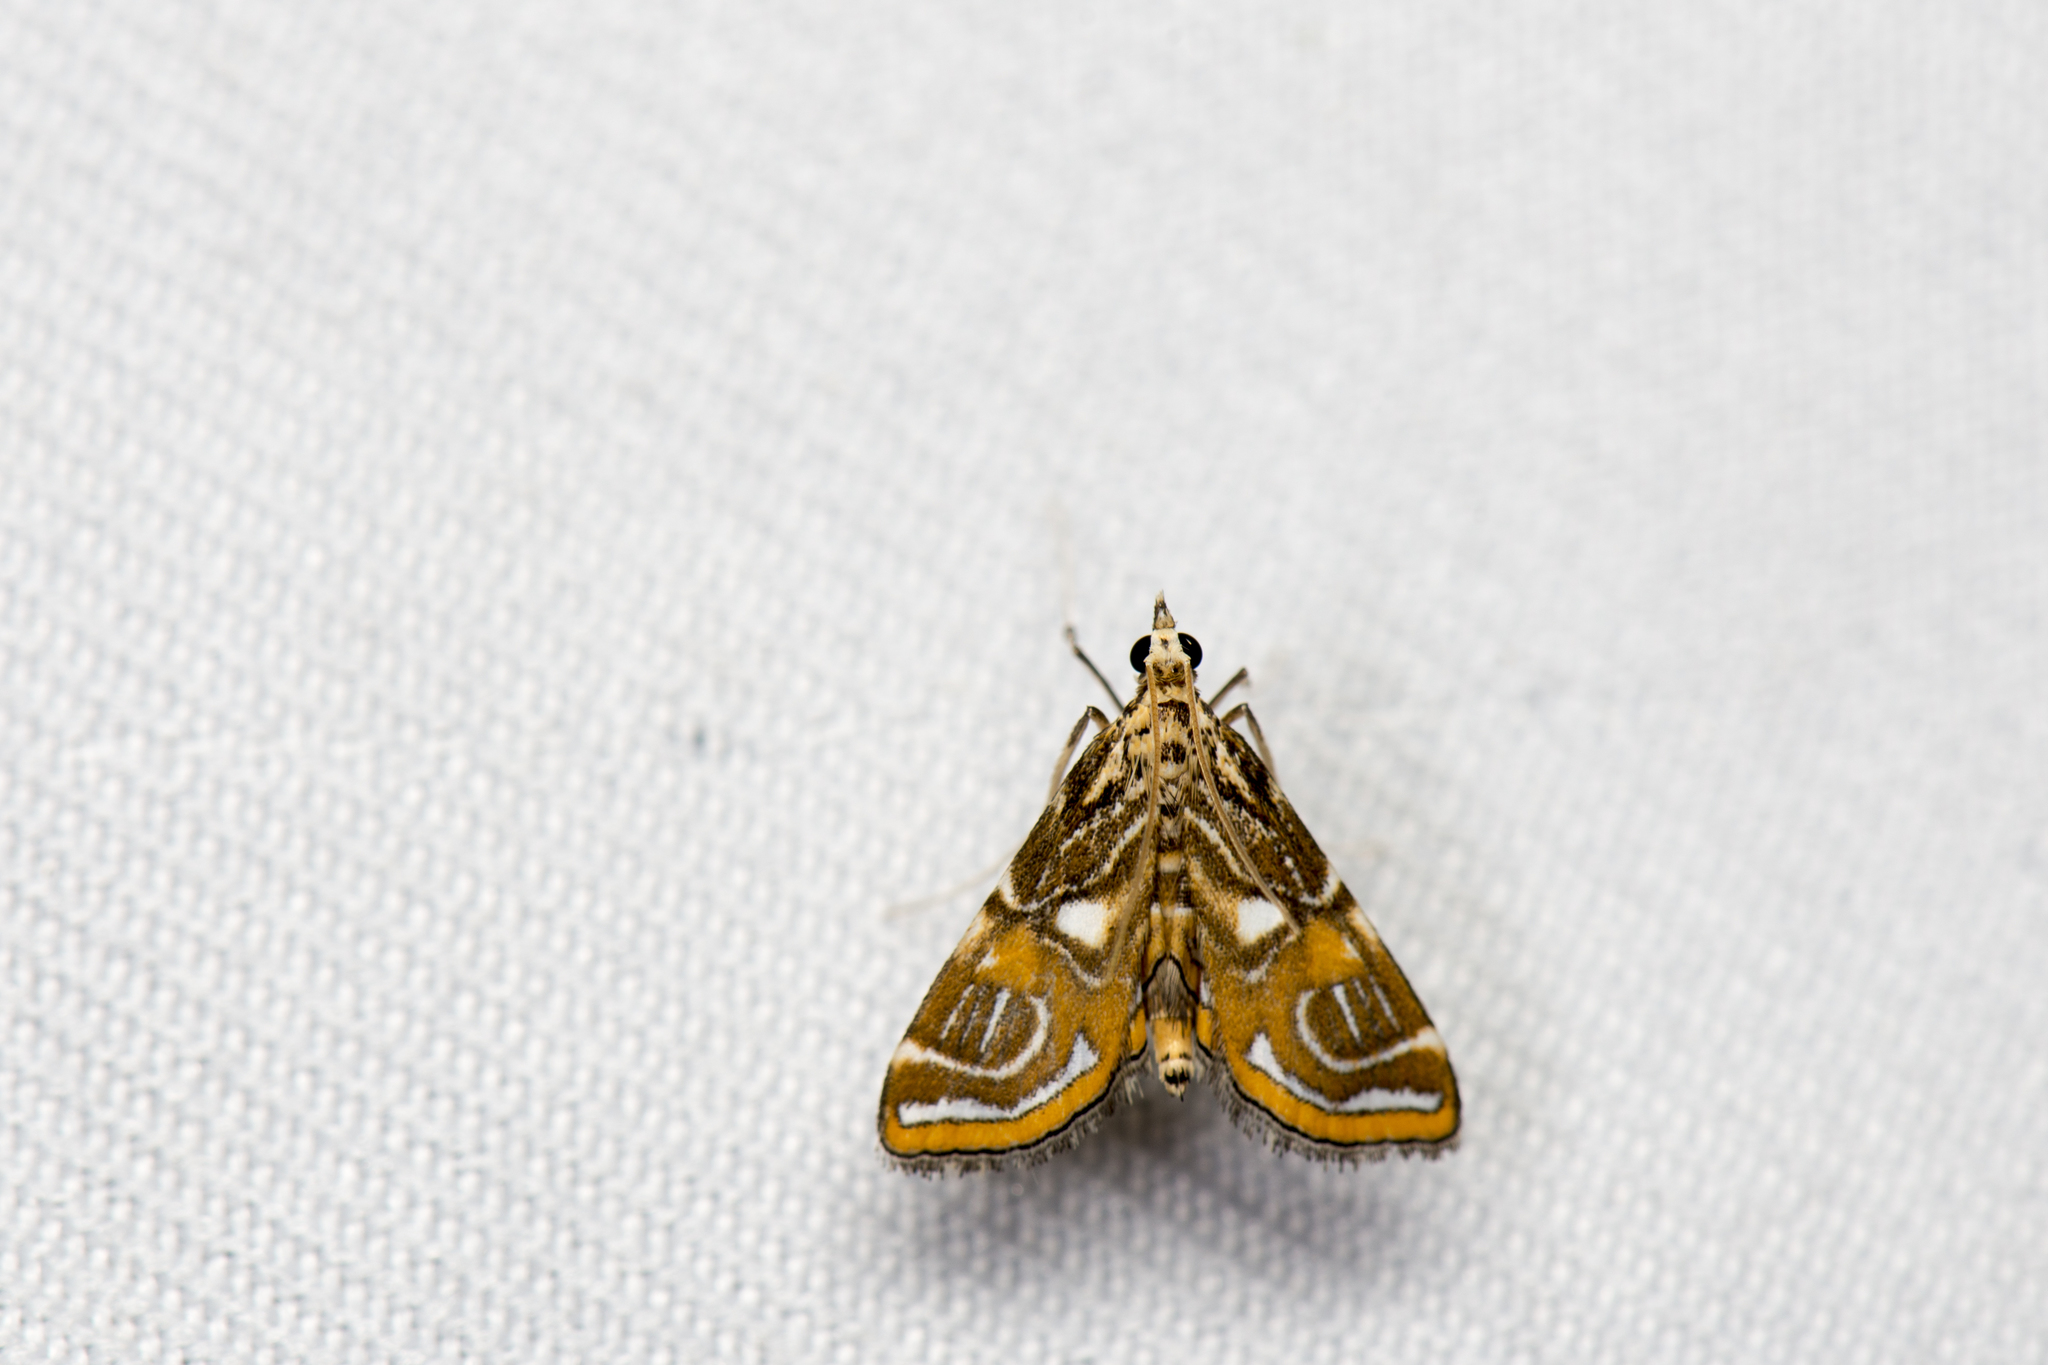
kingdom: Animalia
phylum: Arthropoda
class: Insecta
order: Lepidoptera
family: Crambidae
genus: Paracymoriza
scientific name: Paracymoriza cataclystalis
